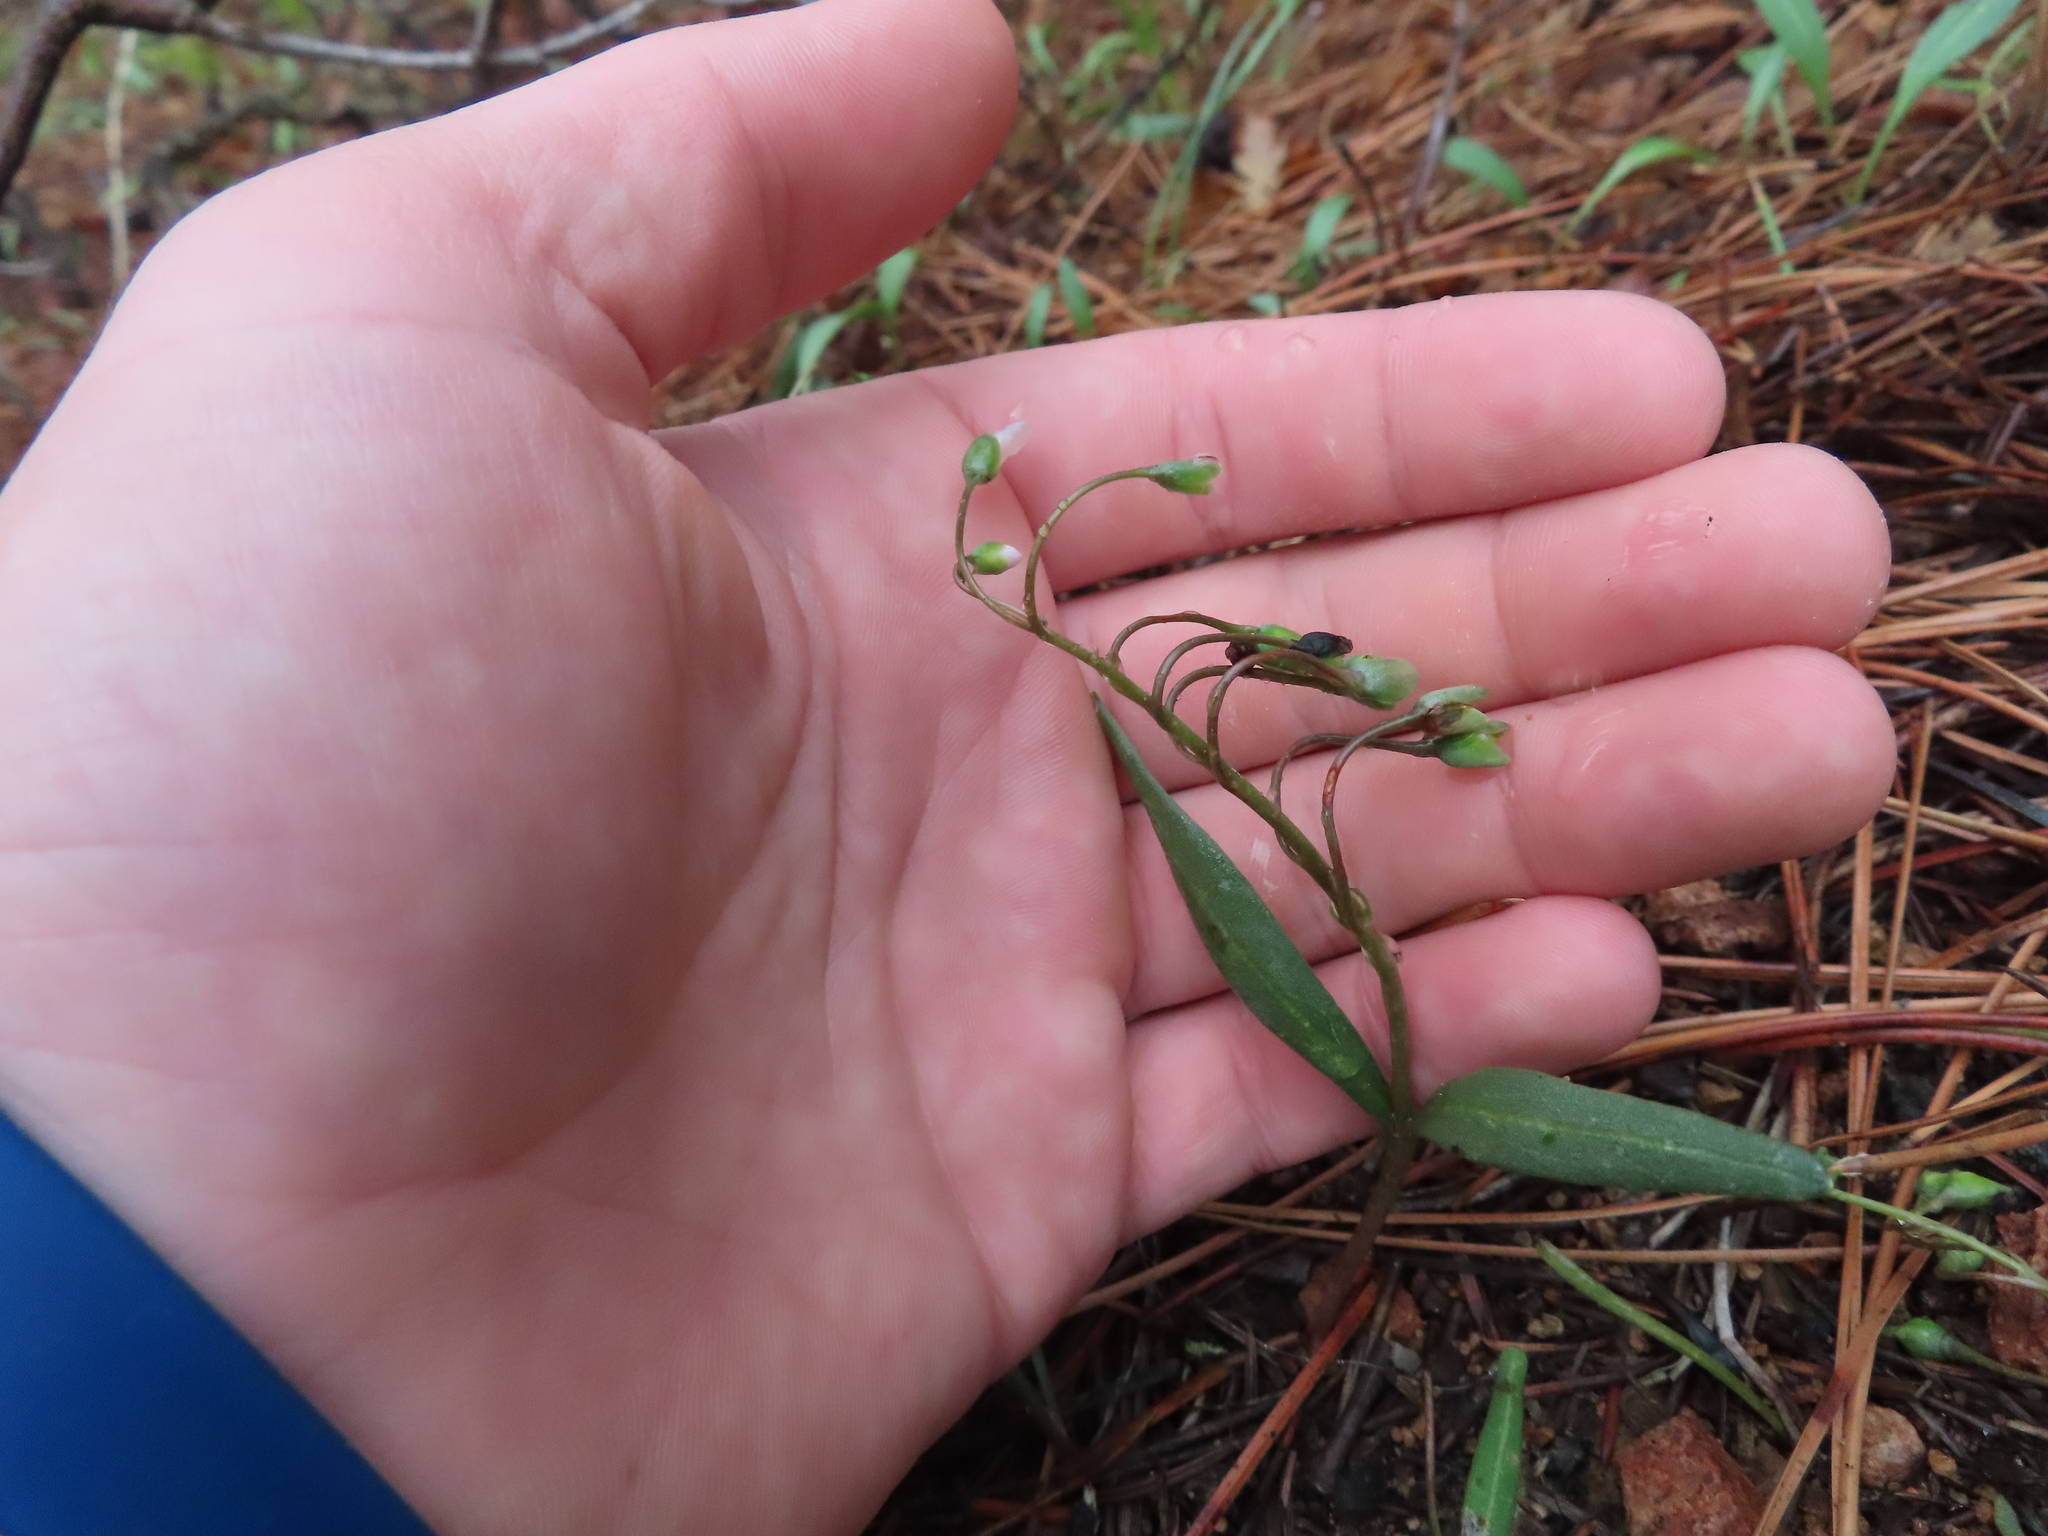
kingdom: Plantae
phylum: Tracheophyta
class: Magnoliopsida
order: Caryophyllales
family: Montiaceae
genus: Claytonia
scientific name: Claytonia rosea
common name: Rocky mountain spring-beauty
